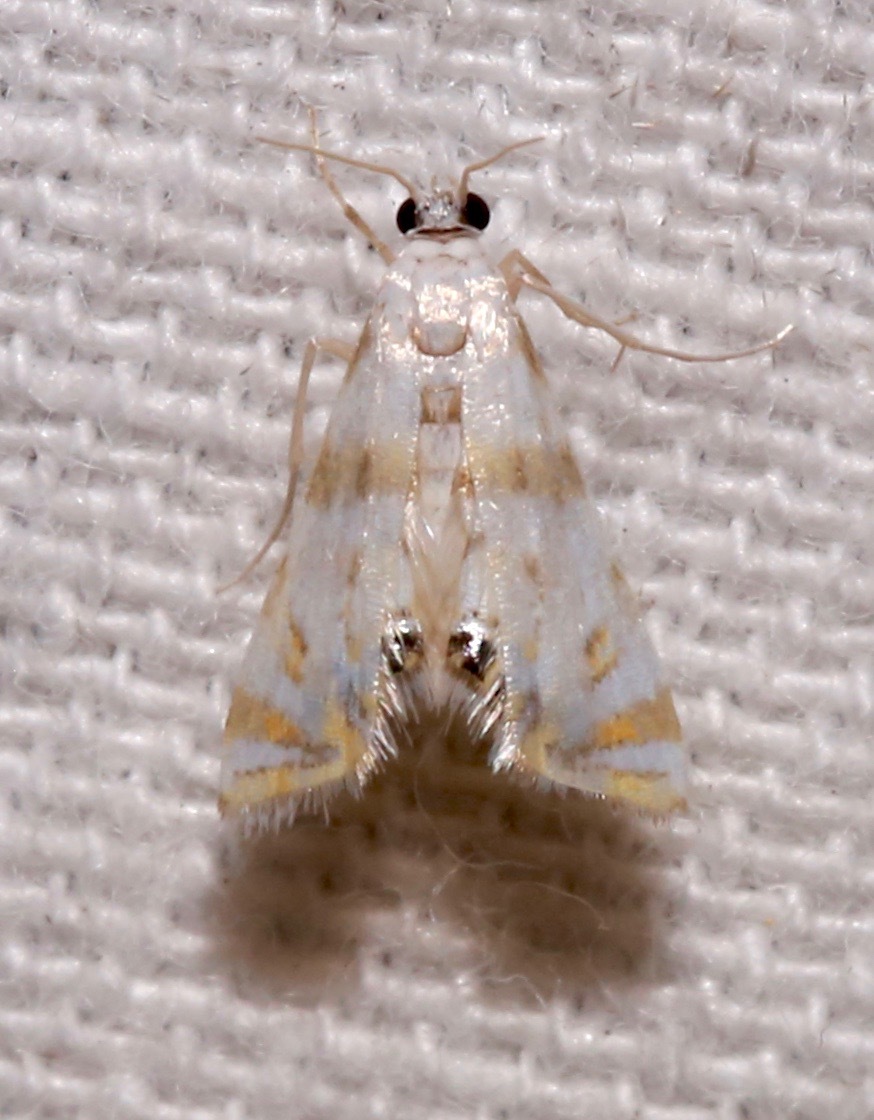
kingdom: Animalia
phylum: Arthropoda
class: Insecta
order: Lepidoptera
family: Crambidae
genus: Argyractis
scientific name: Argyractis drumalis
